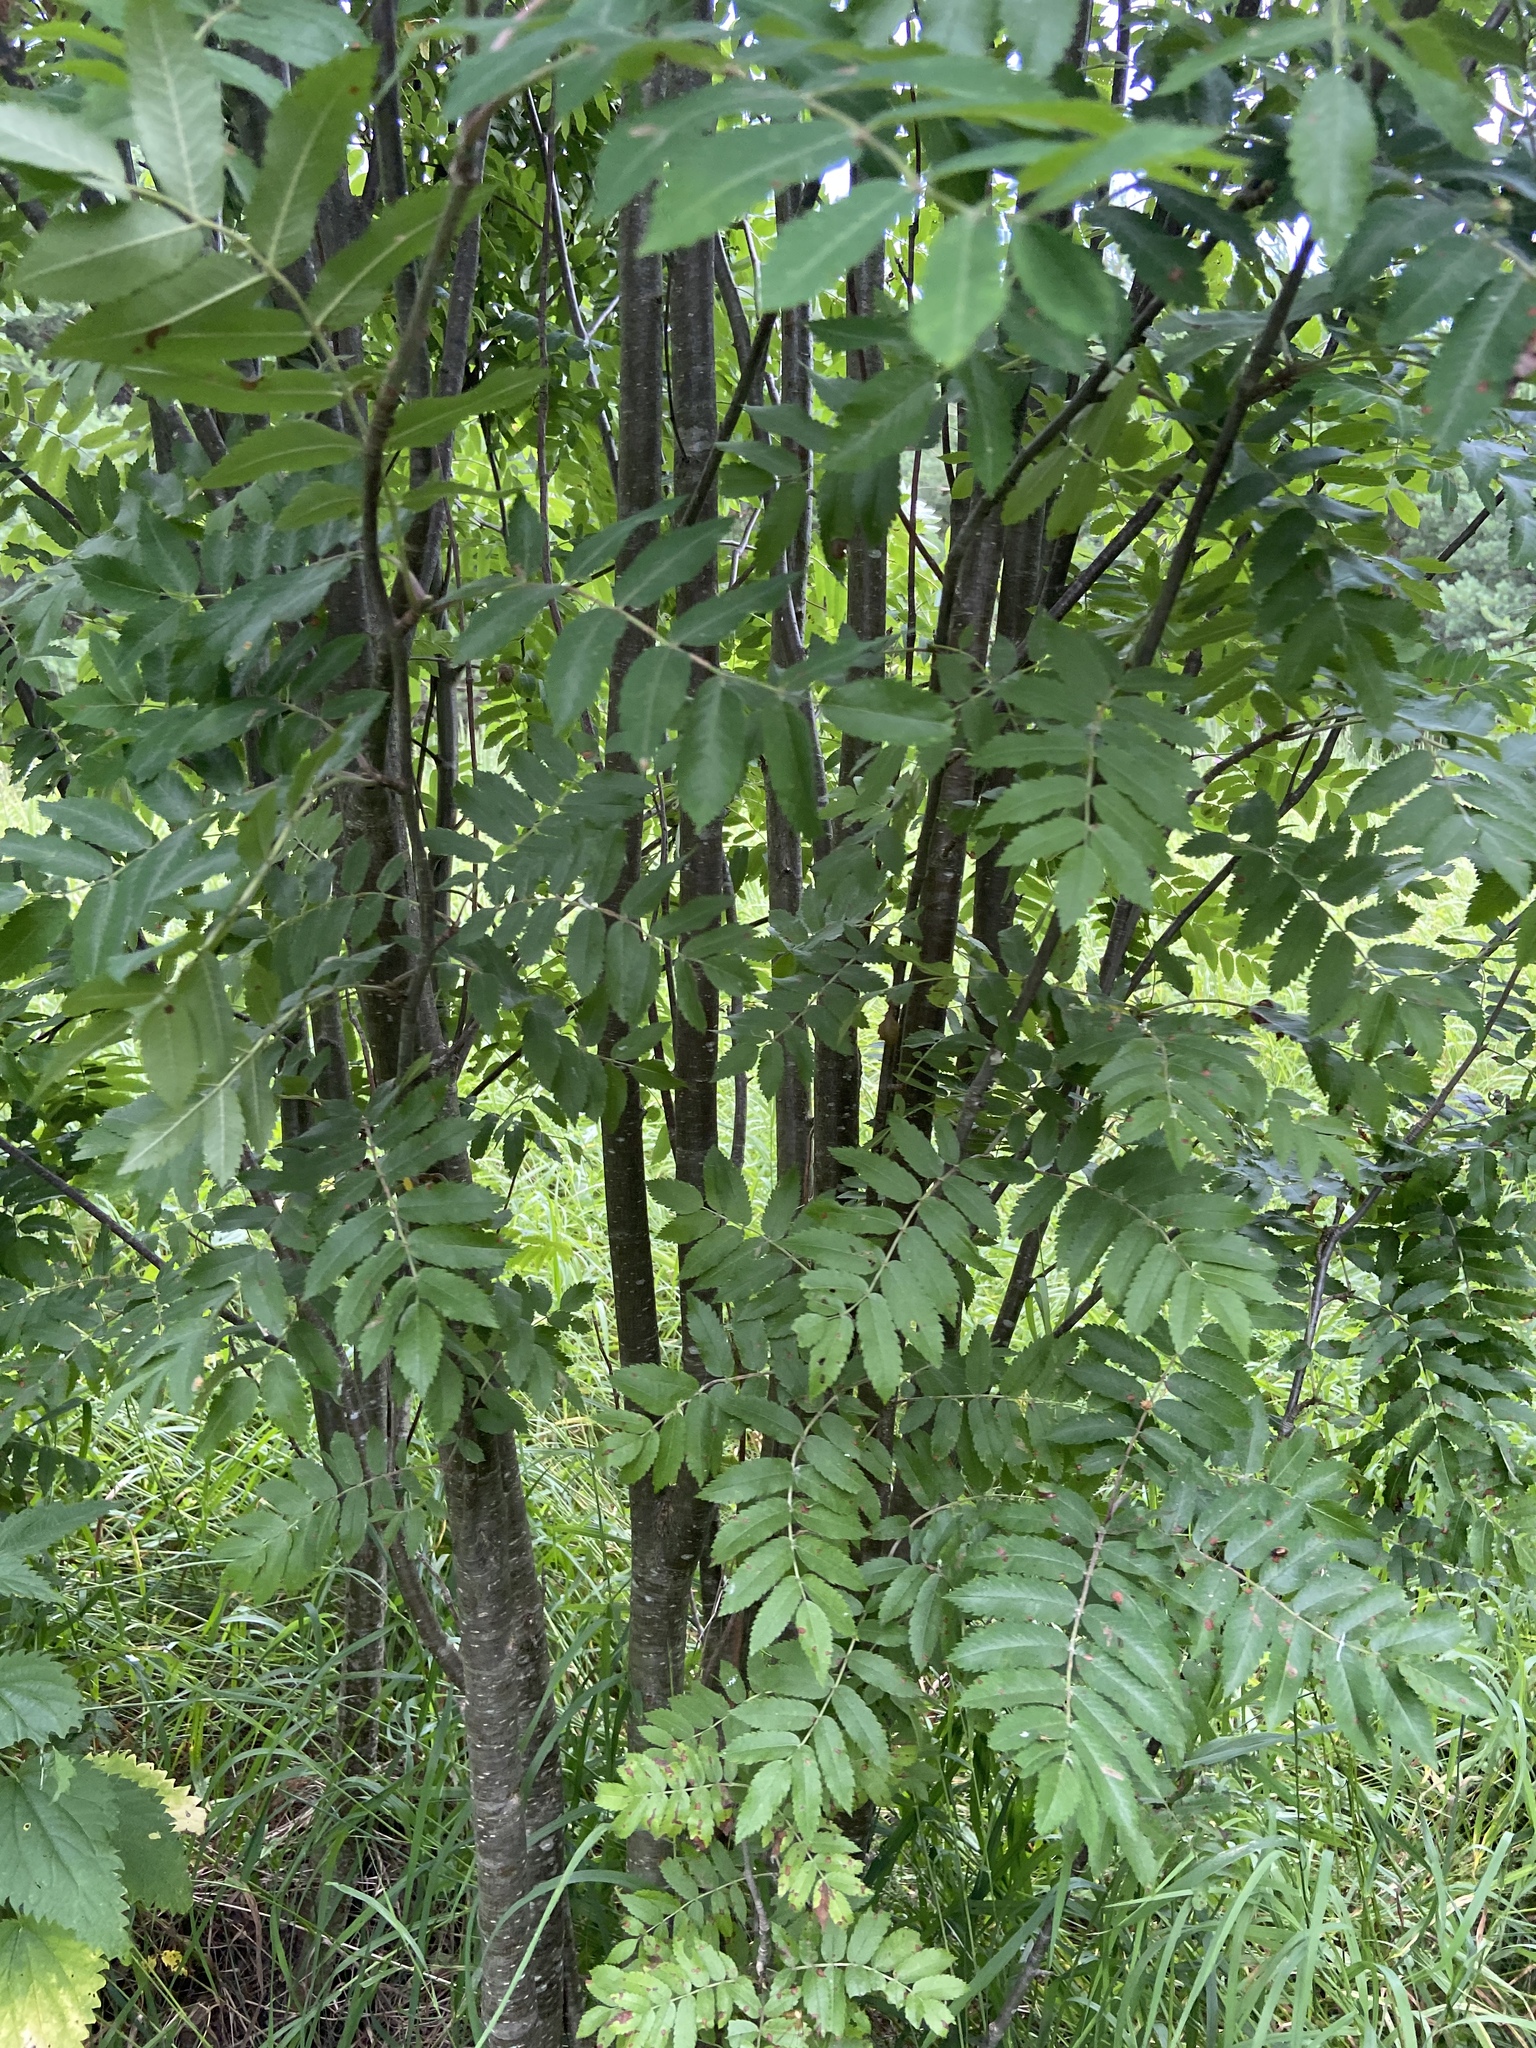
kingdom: Plantae
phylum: Tracheophyta
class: Magnoliopsida
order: Rosales
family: Rosaceae
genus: Sorbus
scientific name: Sorbus aucuparia
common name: Rowan
